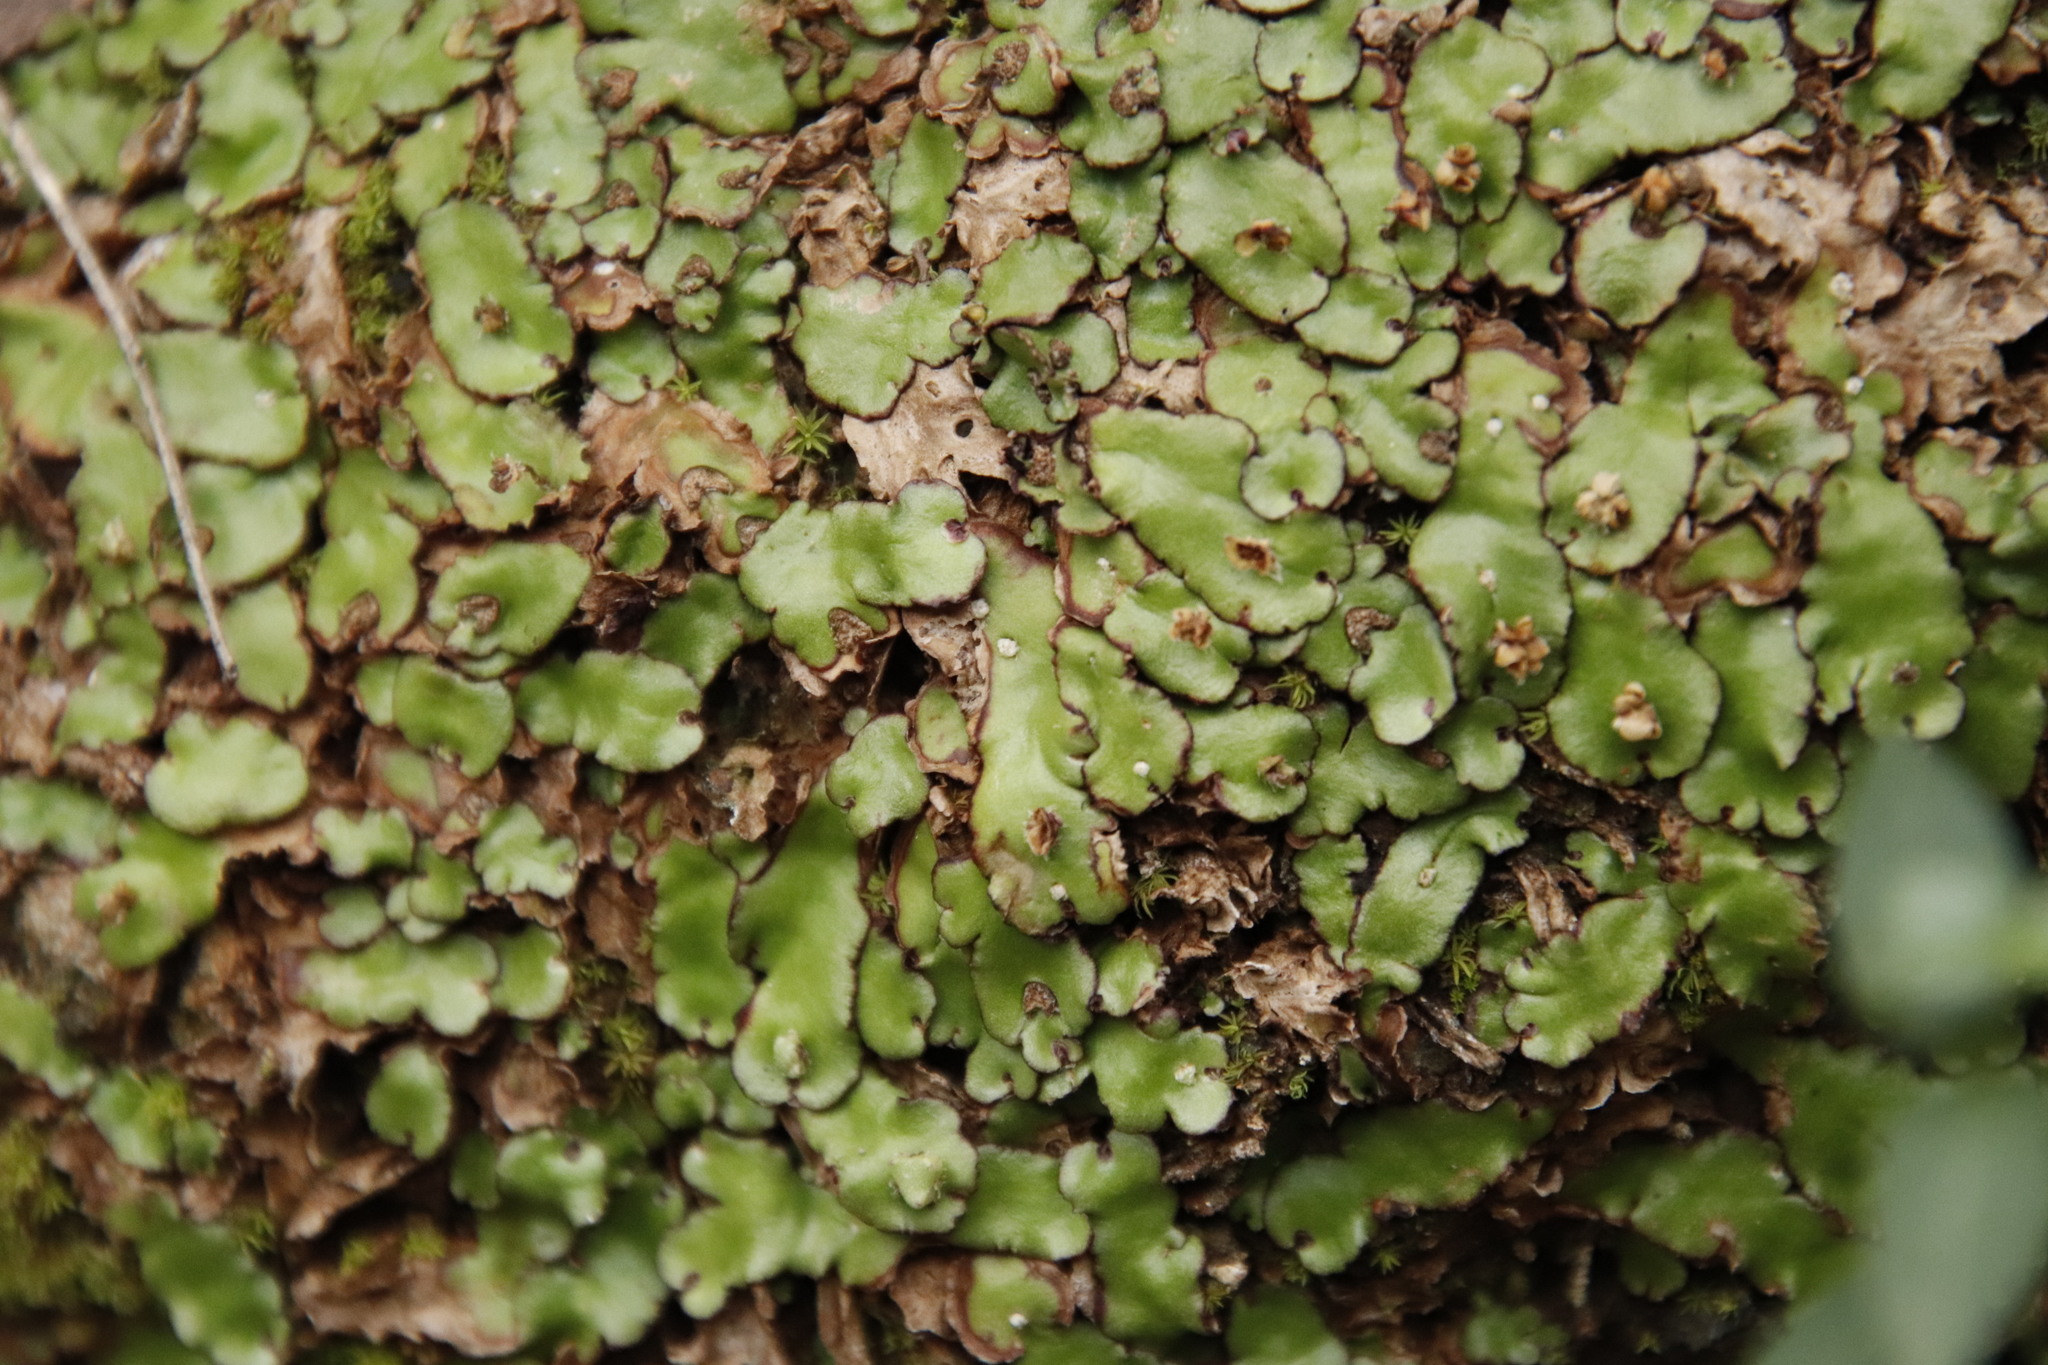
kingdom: Plantae
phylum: Marchantiophyta
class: Marchantiopsida
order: Marchantiales
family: Aytoniaceae
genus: Plagiochasma
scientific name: Plagiochasma appendiculatum
